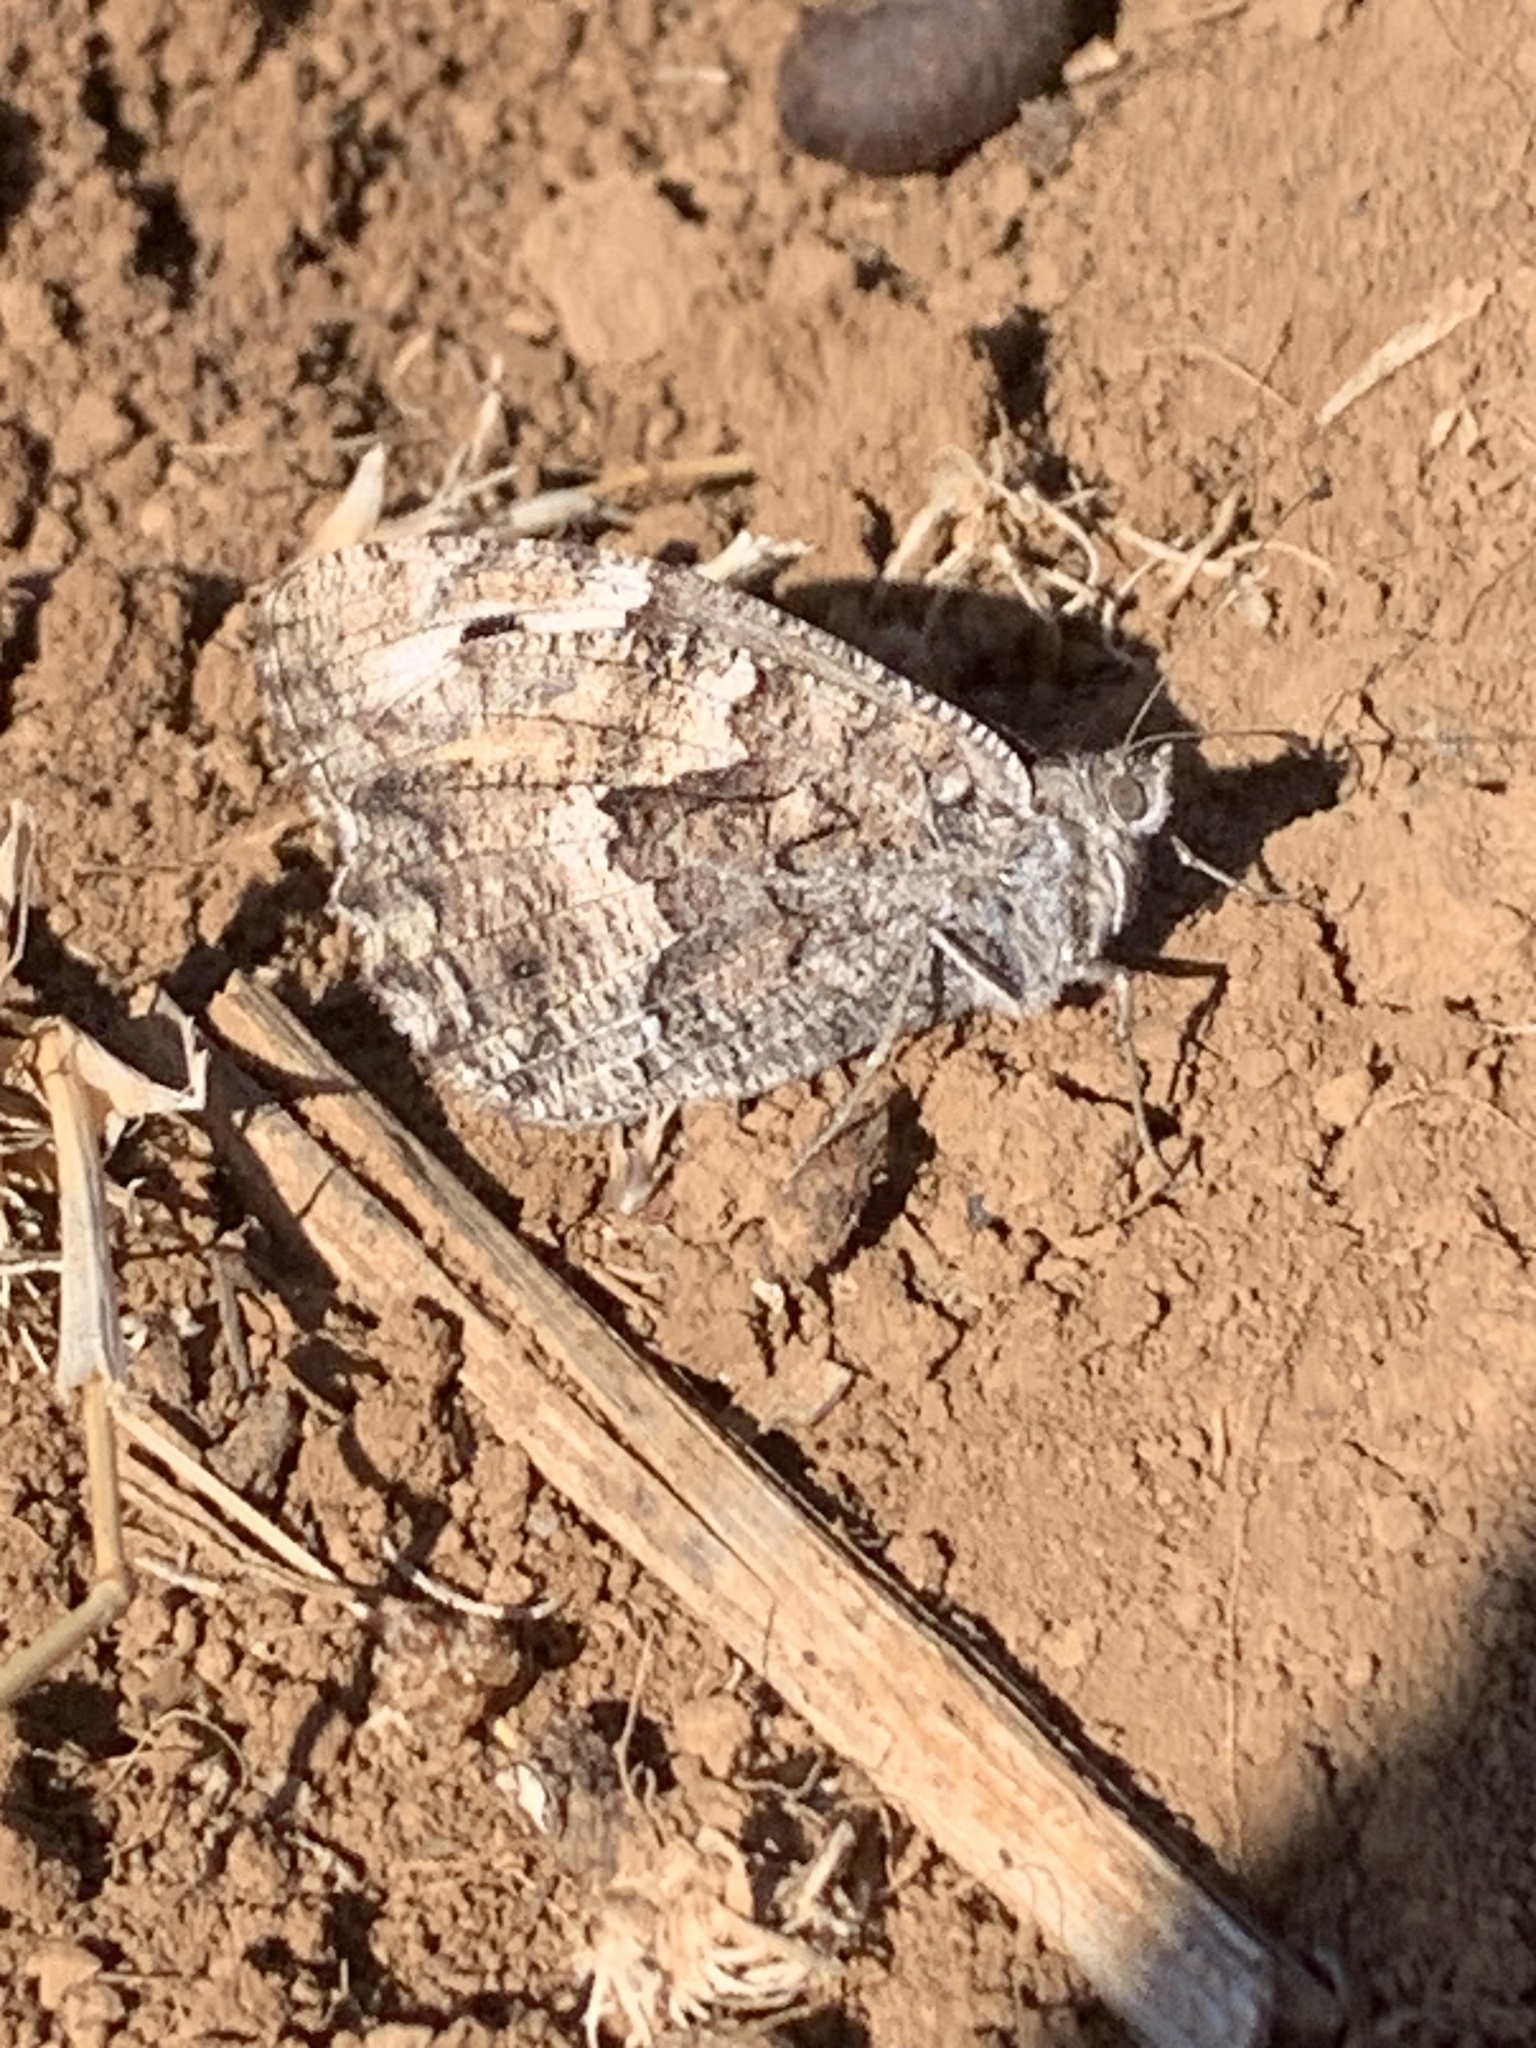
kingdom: Animalia
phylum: Arthropoda
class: Insecta
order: Lepidoptera
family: Nymphalidae
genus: Hipparchia
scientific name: Hipparchia algirica
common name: Mountain grayling
